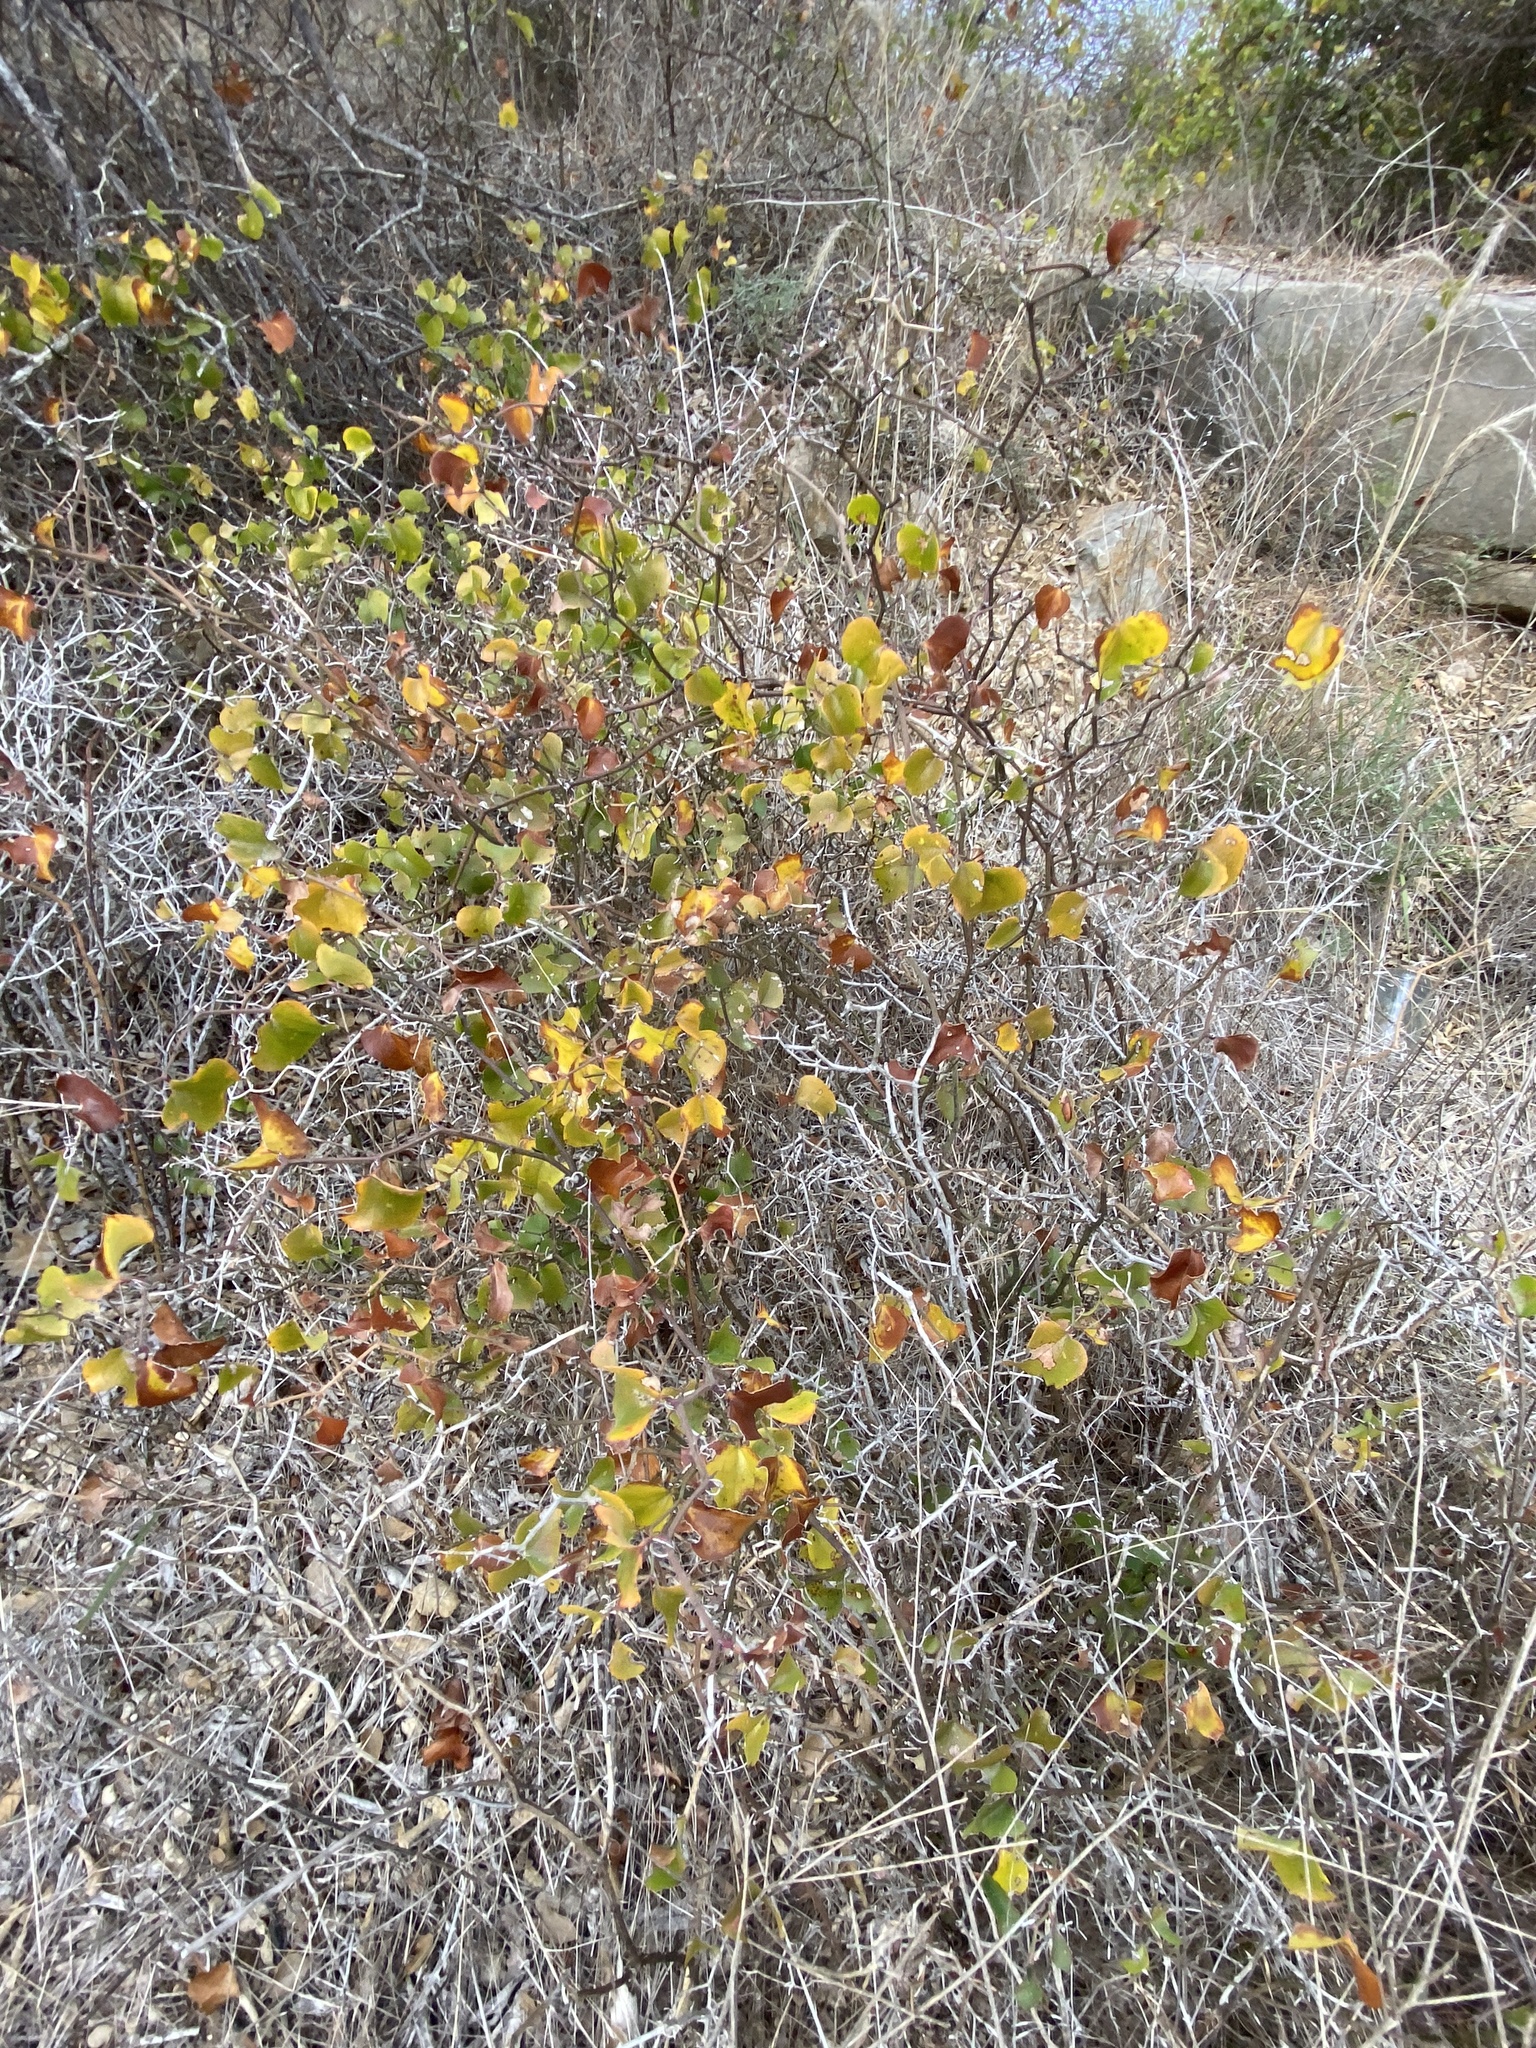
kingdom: Plantae
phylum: Tracheophyta
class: Liliopsida
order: Liliales
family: Smilacaceae
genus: Smilax
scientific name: Smilax bona-nox
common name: Catbrier
